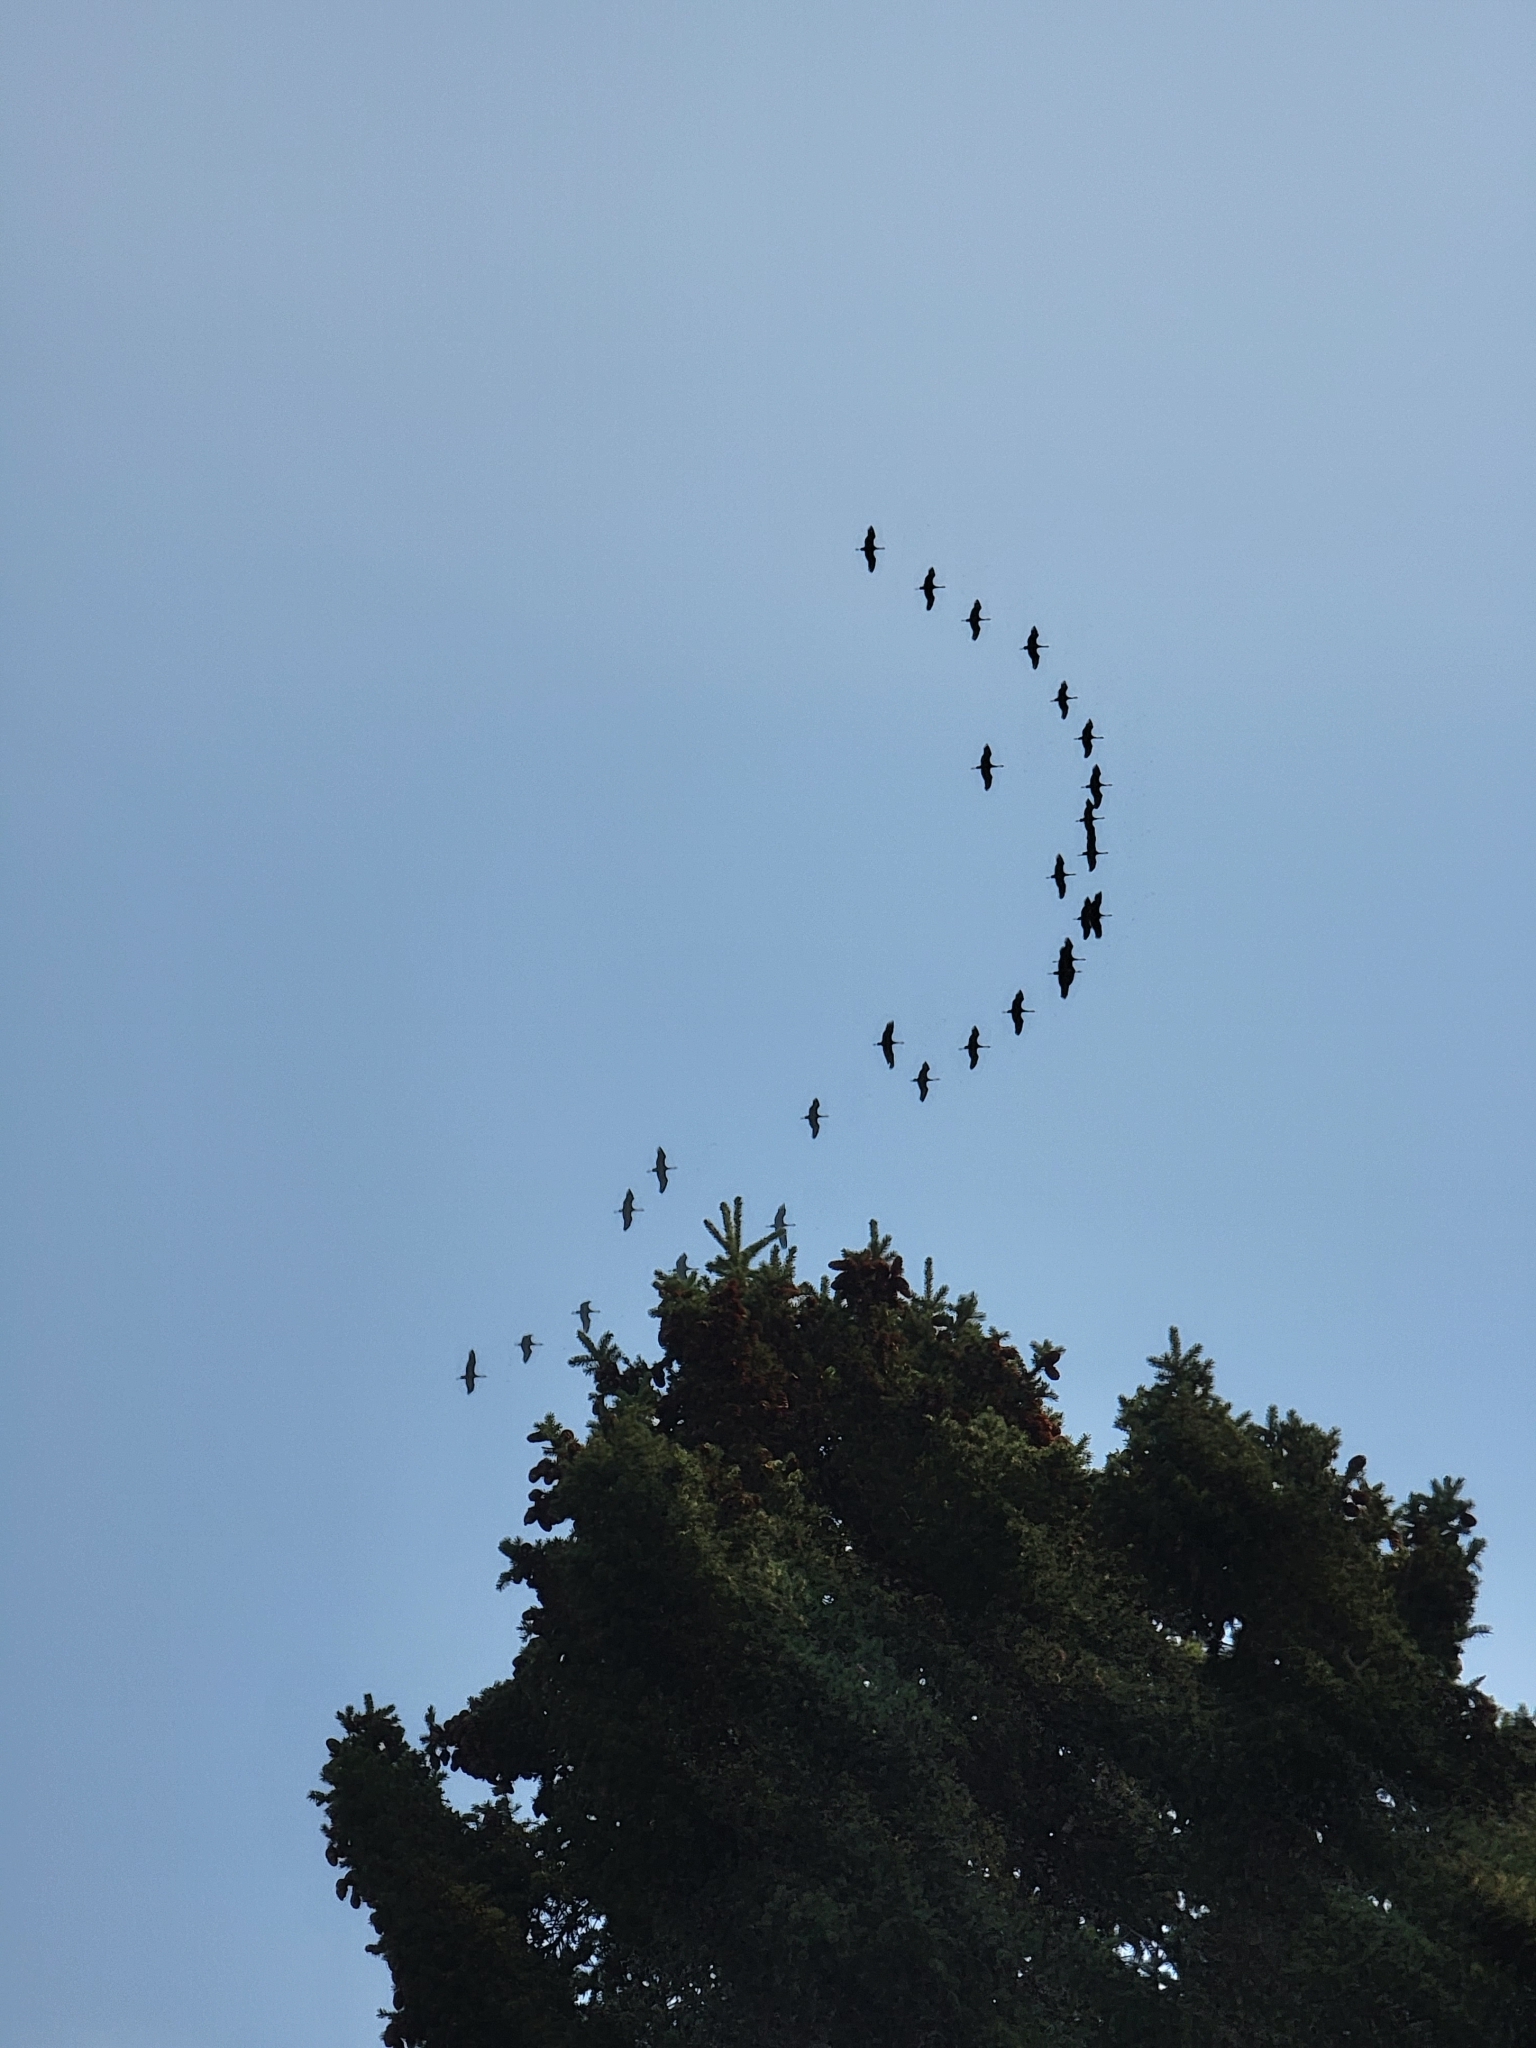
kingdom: Animalia
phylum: Chordata
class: Aves
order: Gruiformes
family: Gruidae
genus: Grus
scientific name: Grus canadensis
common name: Sandhill crane
